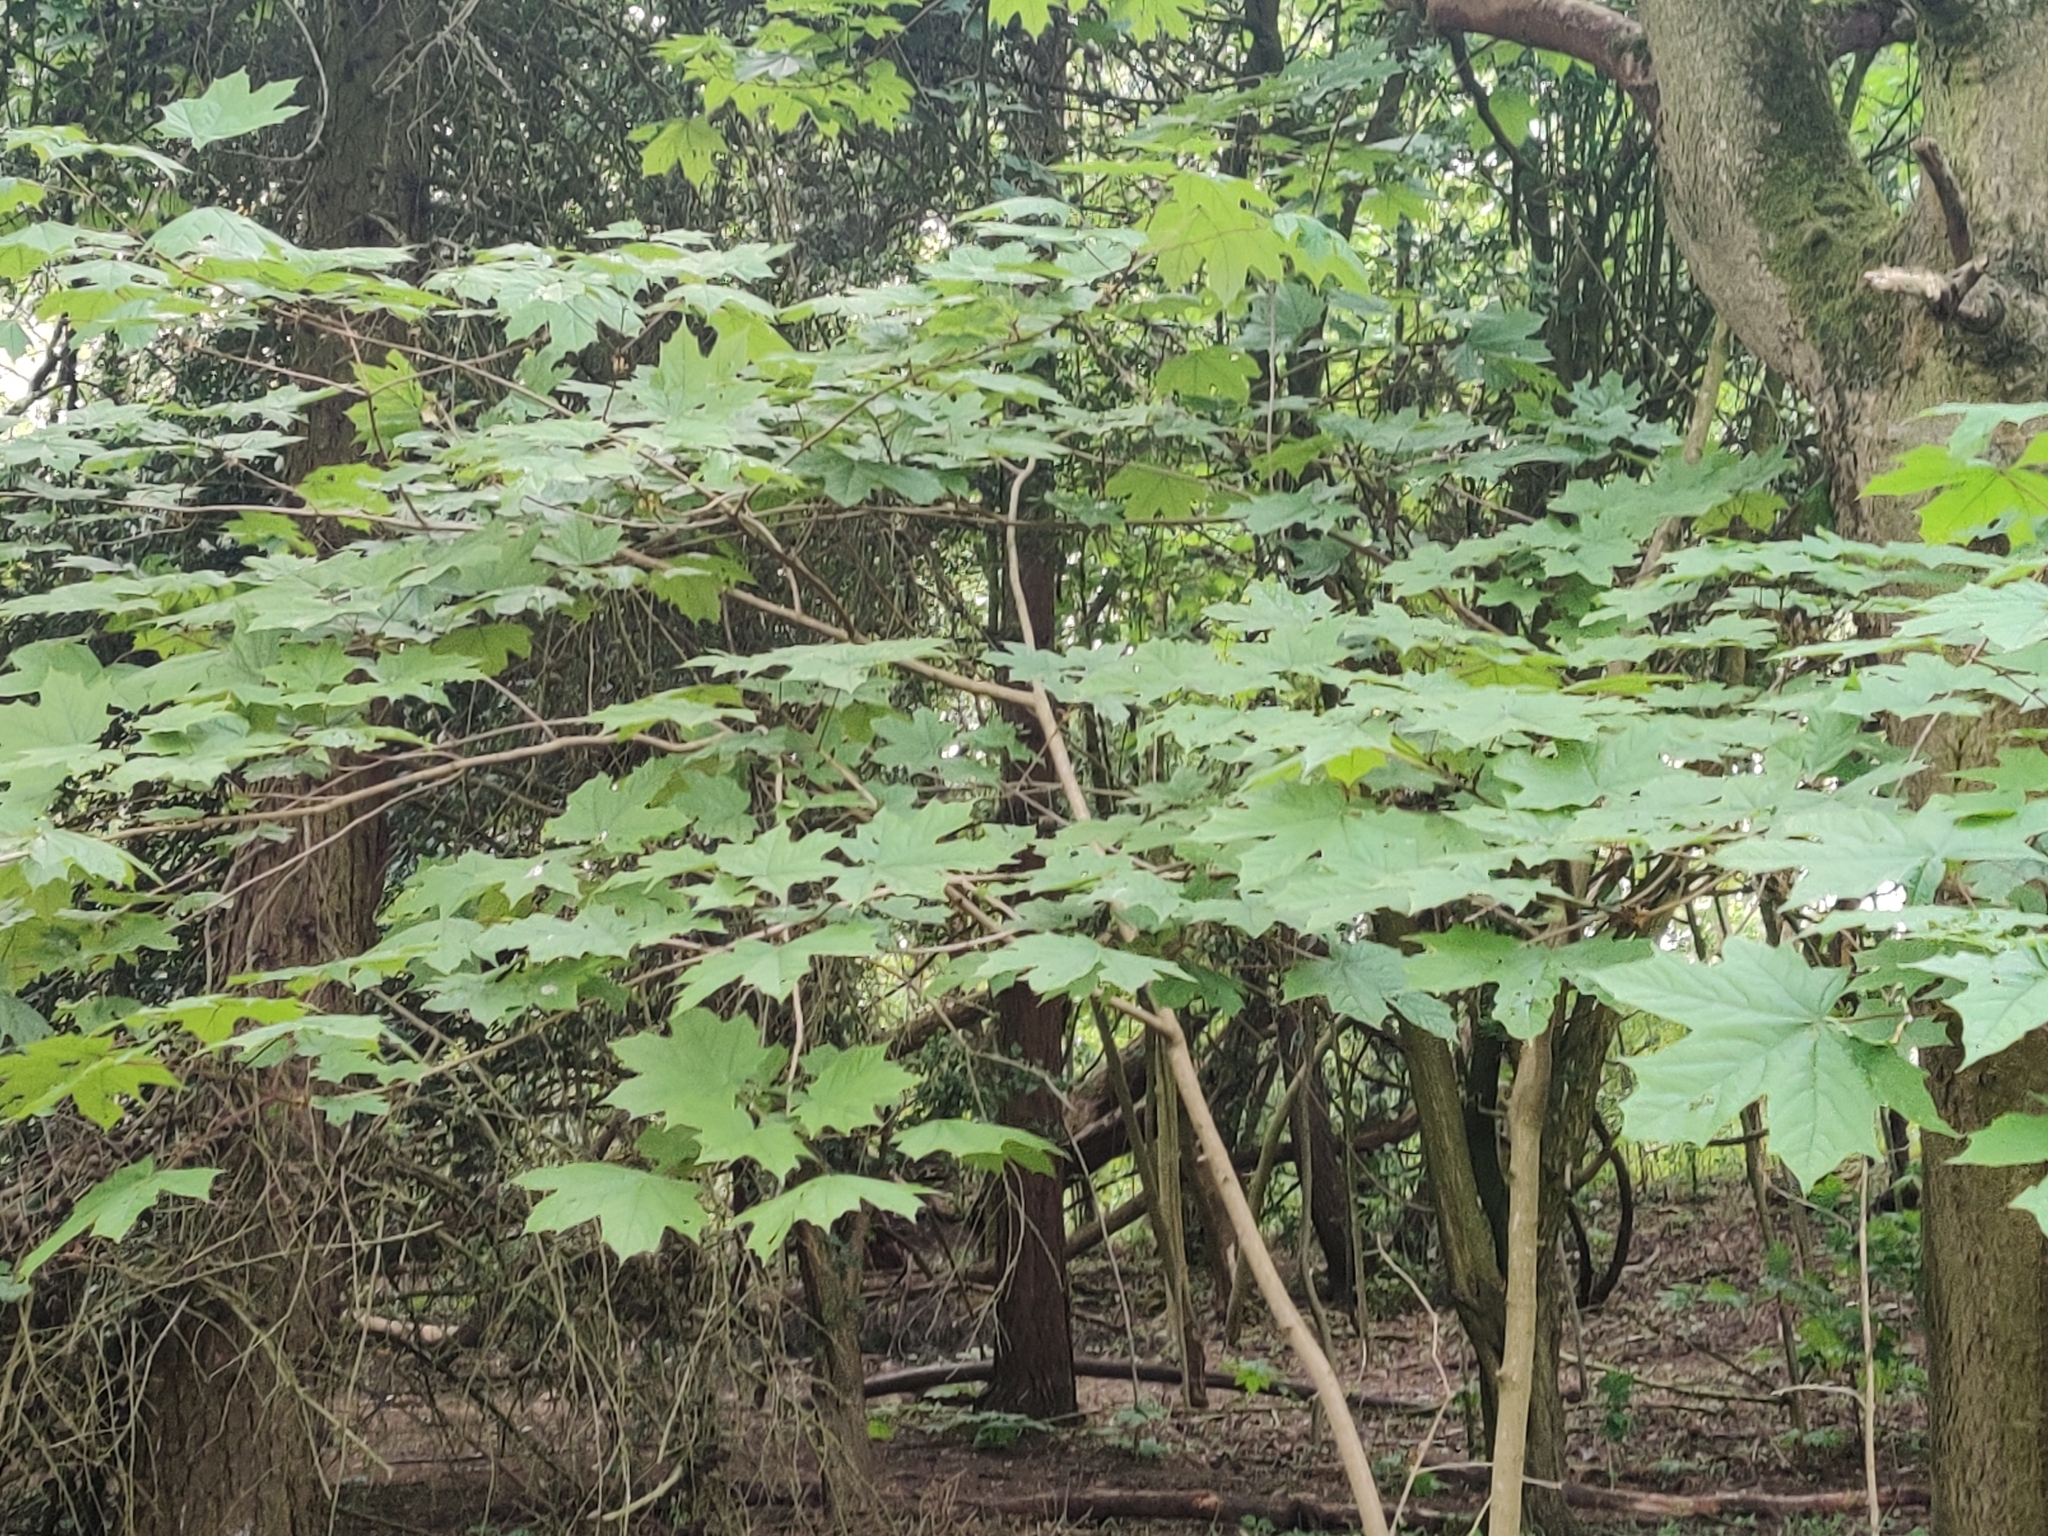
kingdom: Plantae
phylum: Tracheophyta
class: Magnoliopsida
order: Sapindales
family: Sapindaceae
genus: Acer
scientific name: Acer platanoides
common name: Norway maple
